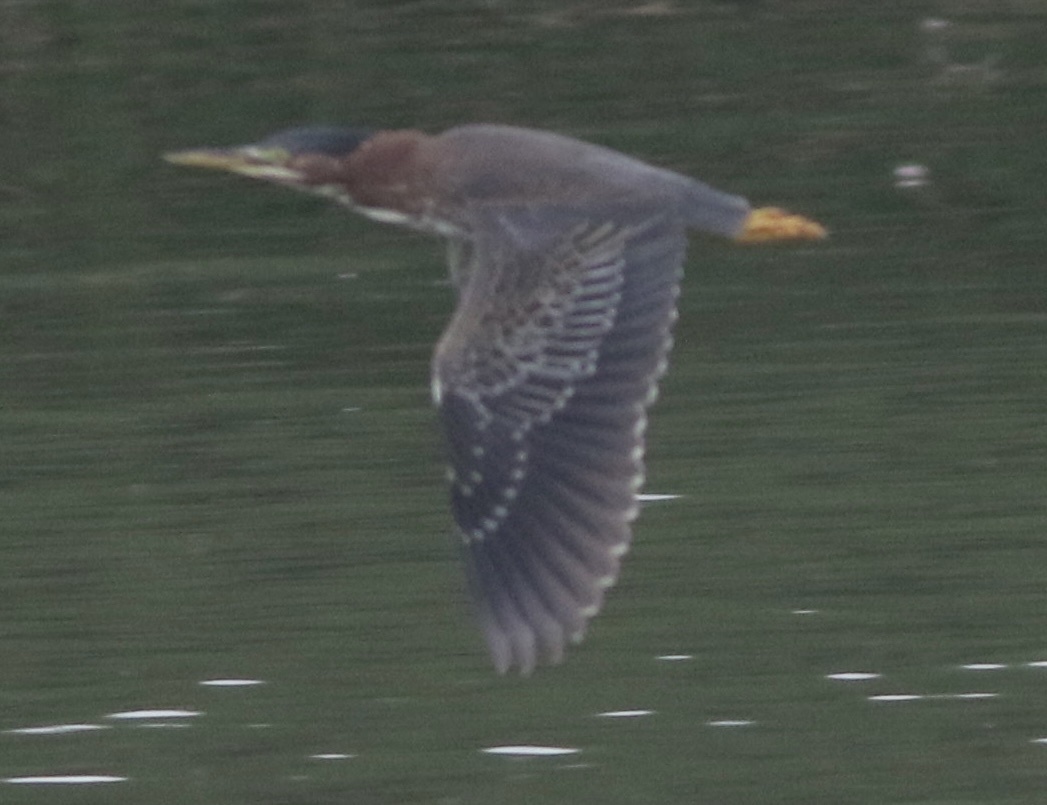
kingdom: Animalia
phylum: Chordata
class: Aves
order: Pelecaniformes
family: Ardeidae
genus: Butorides
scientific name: Butorides virescens
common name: Green heron
